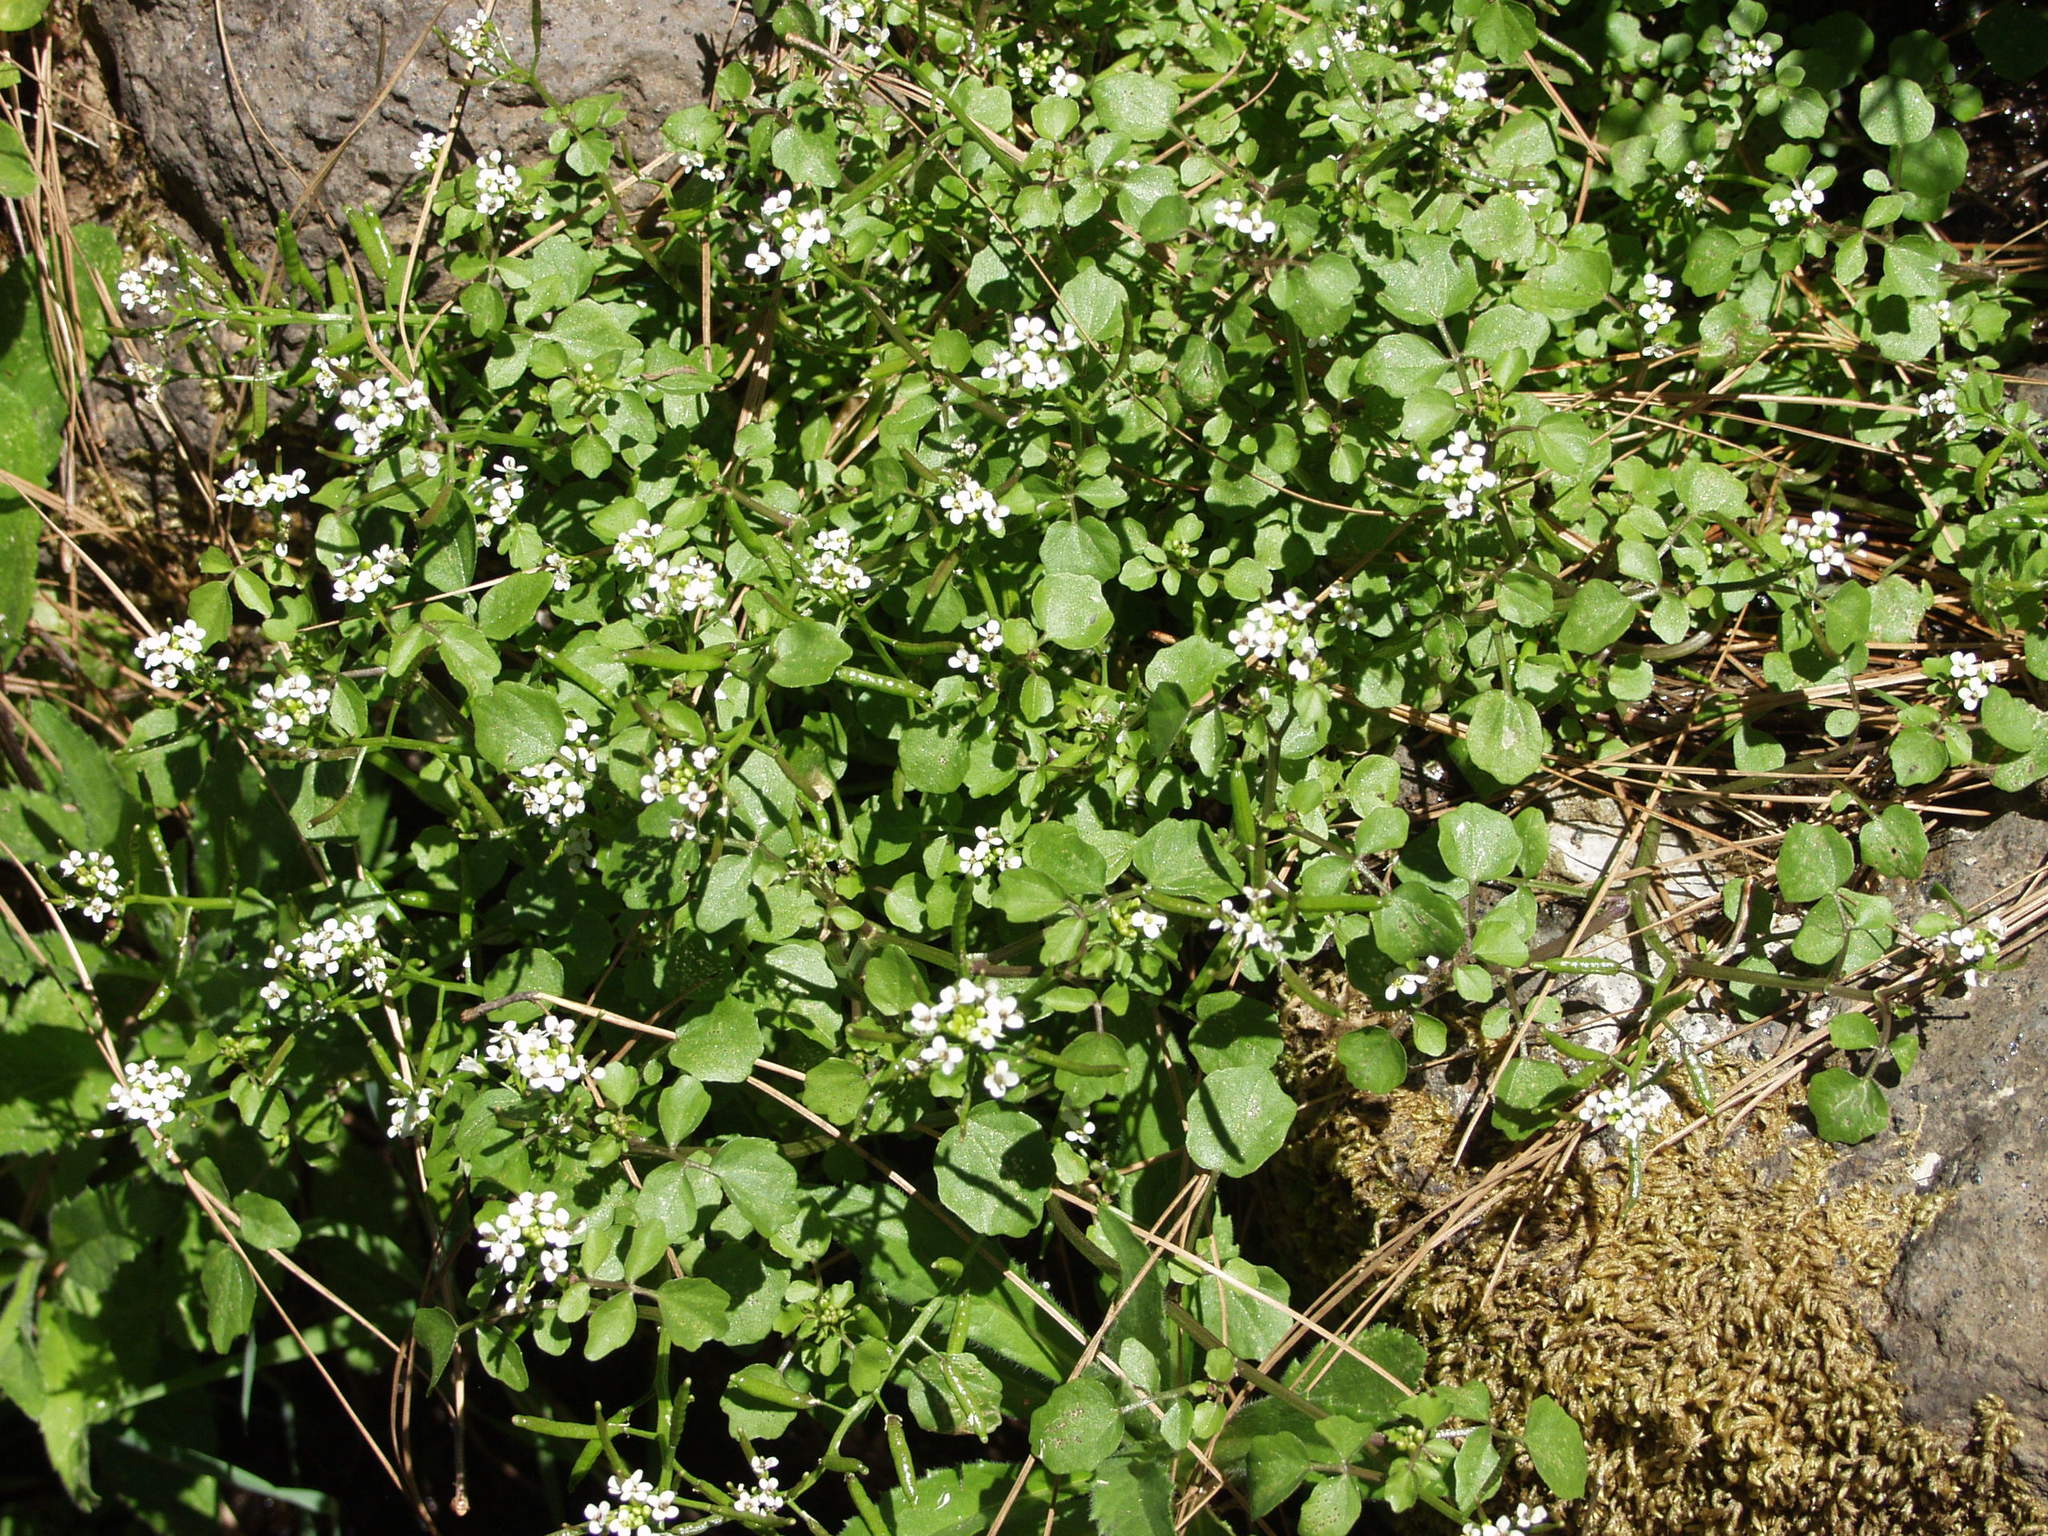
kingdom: Plantae
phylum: Tracheophyta
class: Magnoliopsida
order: Brassicales
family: Brassicaceae
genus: Nasturtium
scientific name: Nasturtium officinale
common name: Watercress
